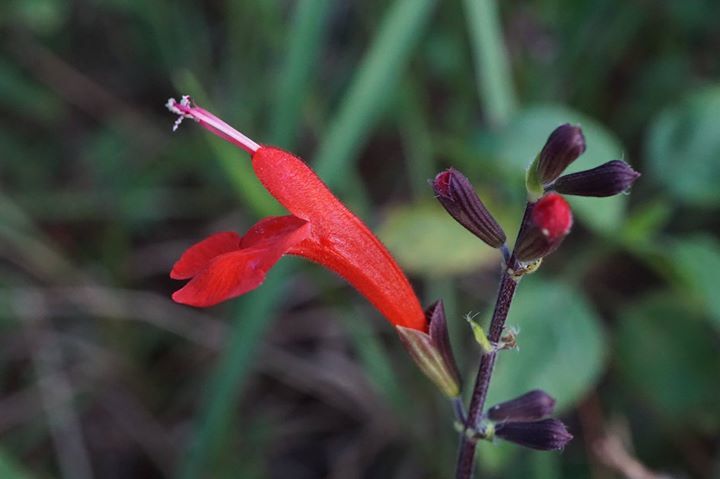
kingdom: Plantae
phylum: Tracheophyta
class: Magnoliopsida
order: Lamiales
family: Lamiaceae
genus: Salvia
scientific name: Salvia coccinea
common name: Blood sage
